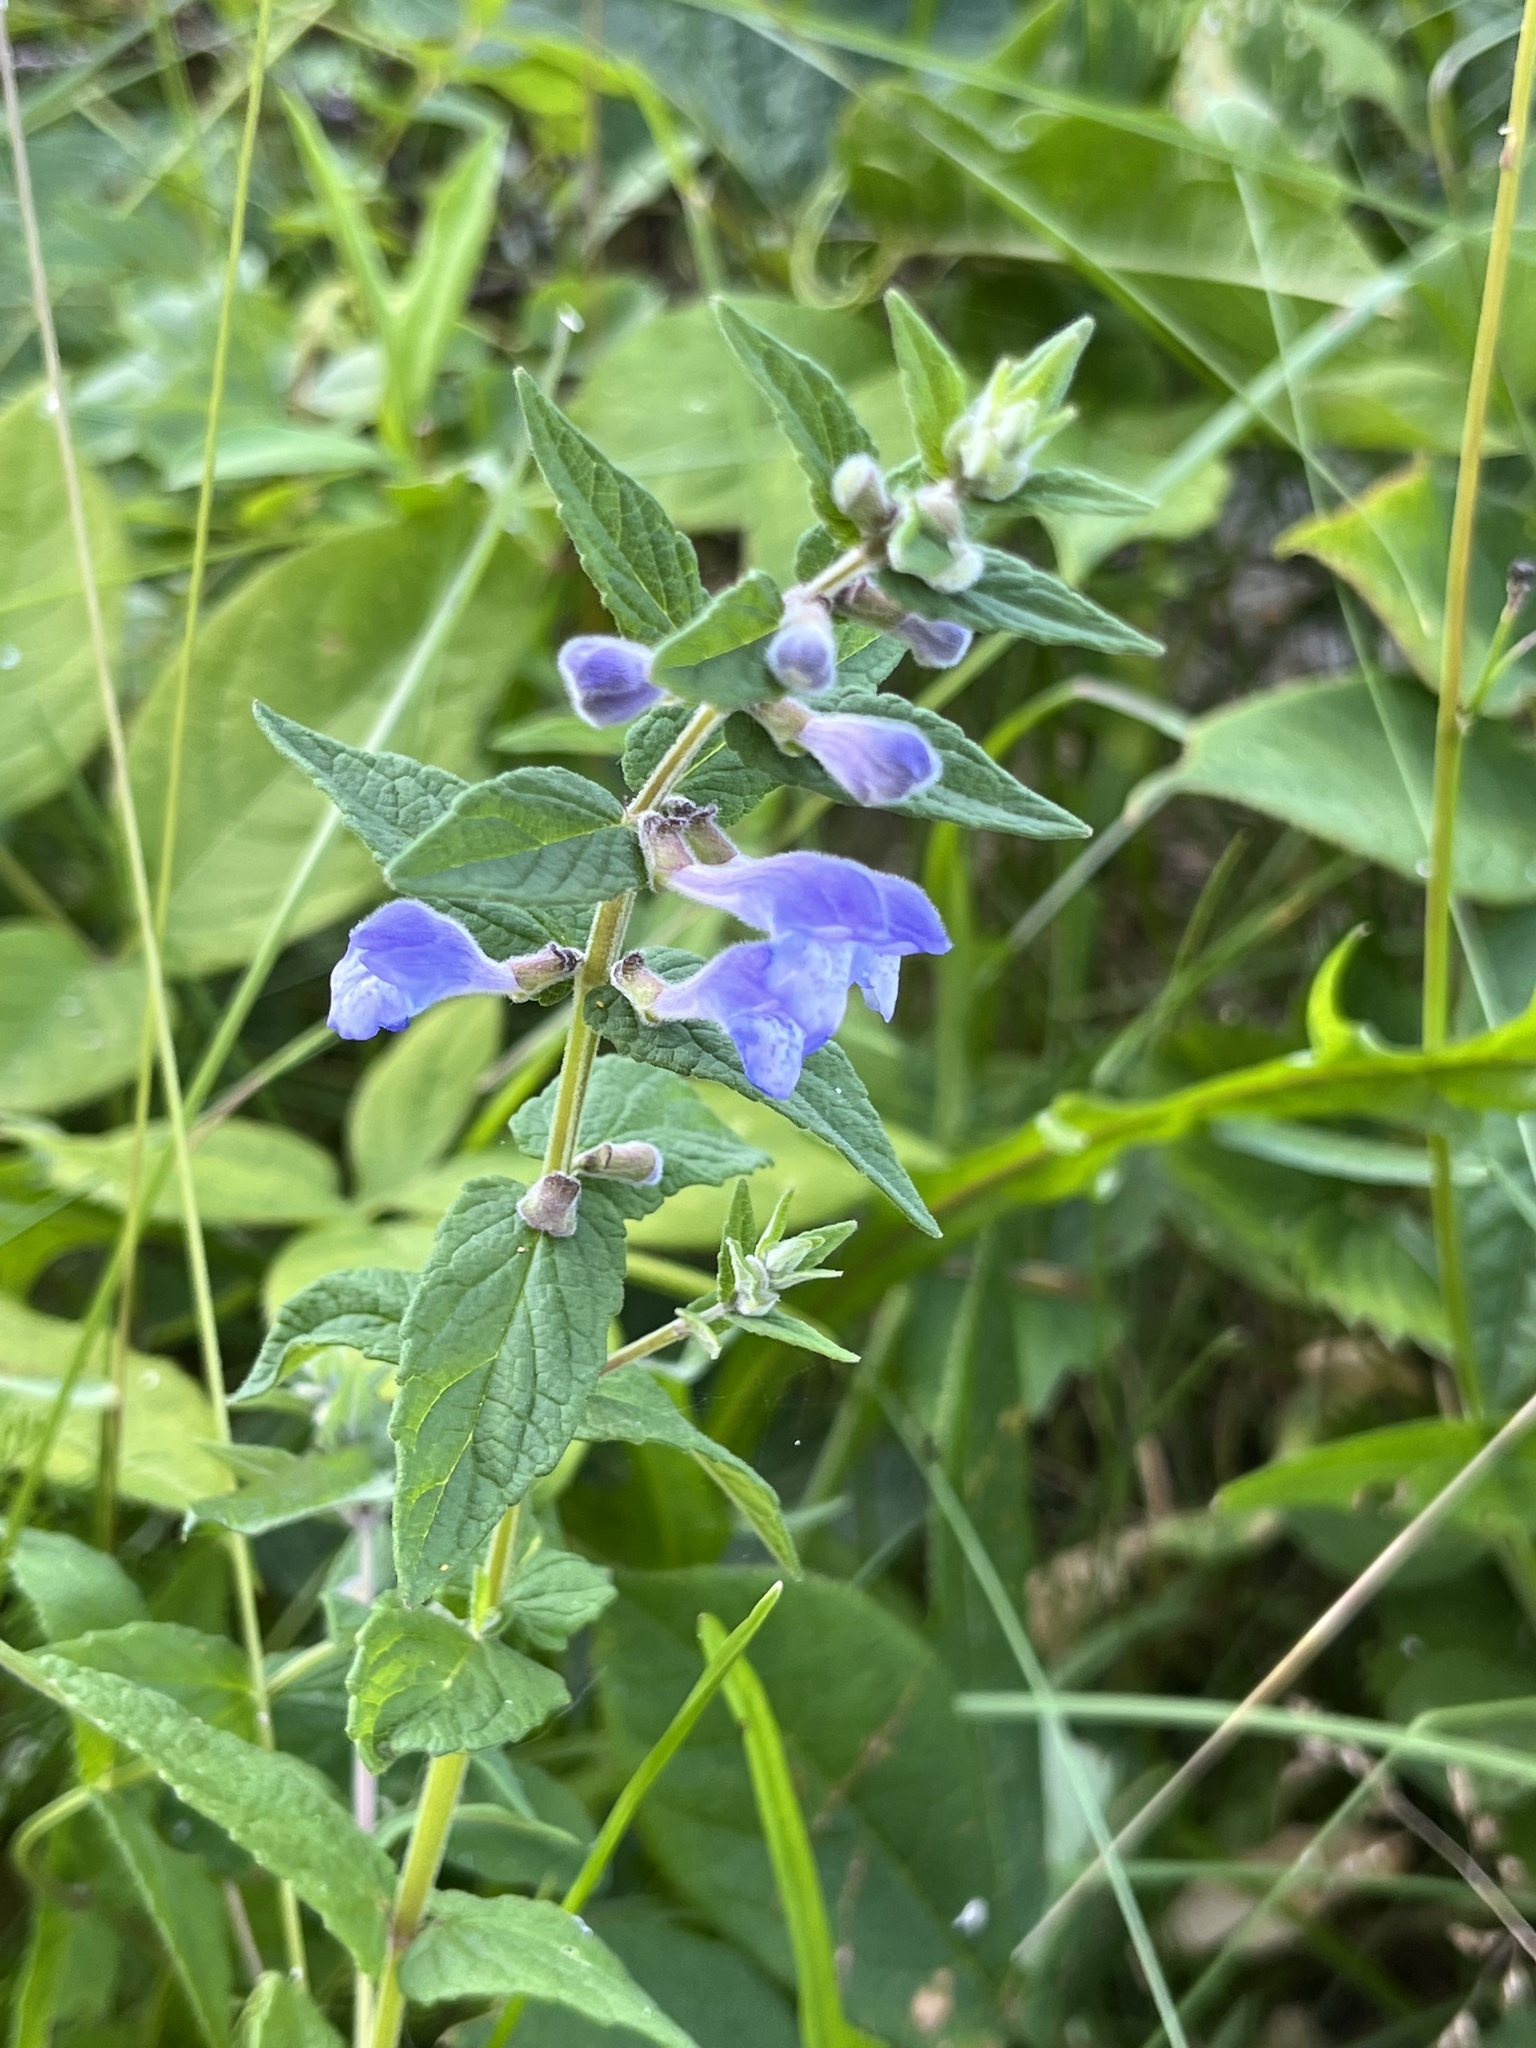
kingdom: Plantae
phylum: Tracheophyta
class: Magnoliopsida
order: Lamiales
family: Lamiaceae
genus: Scutellaria
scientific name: Scutellaria galericulata
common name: Skullcap
